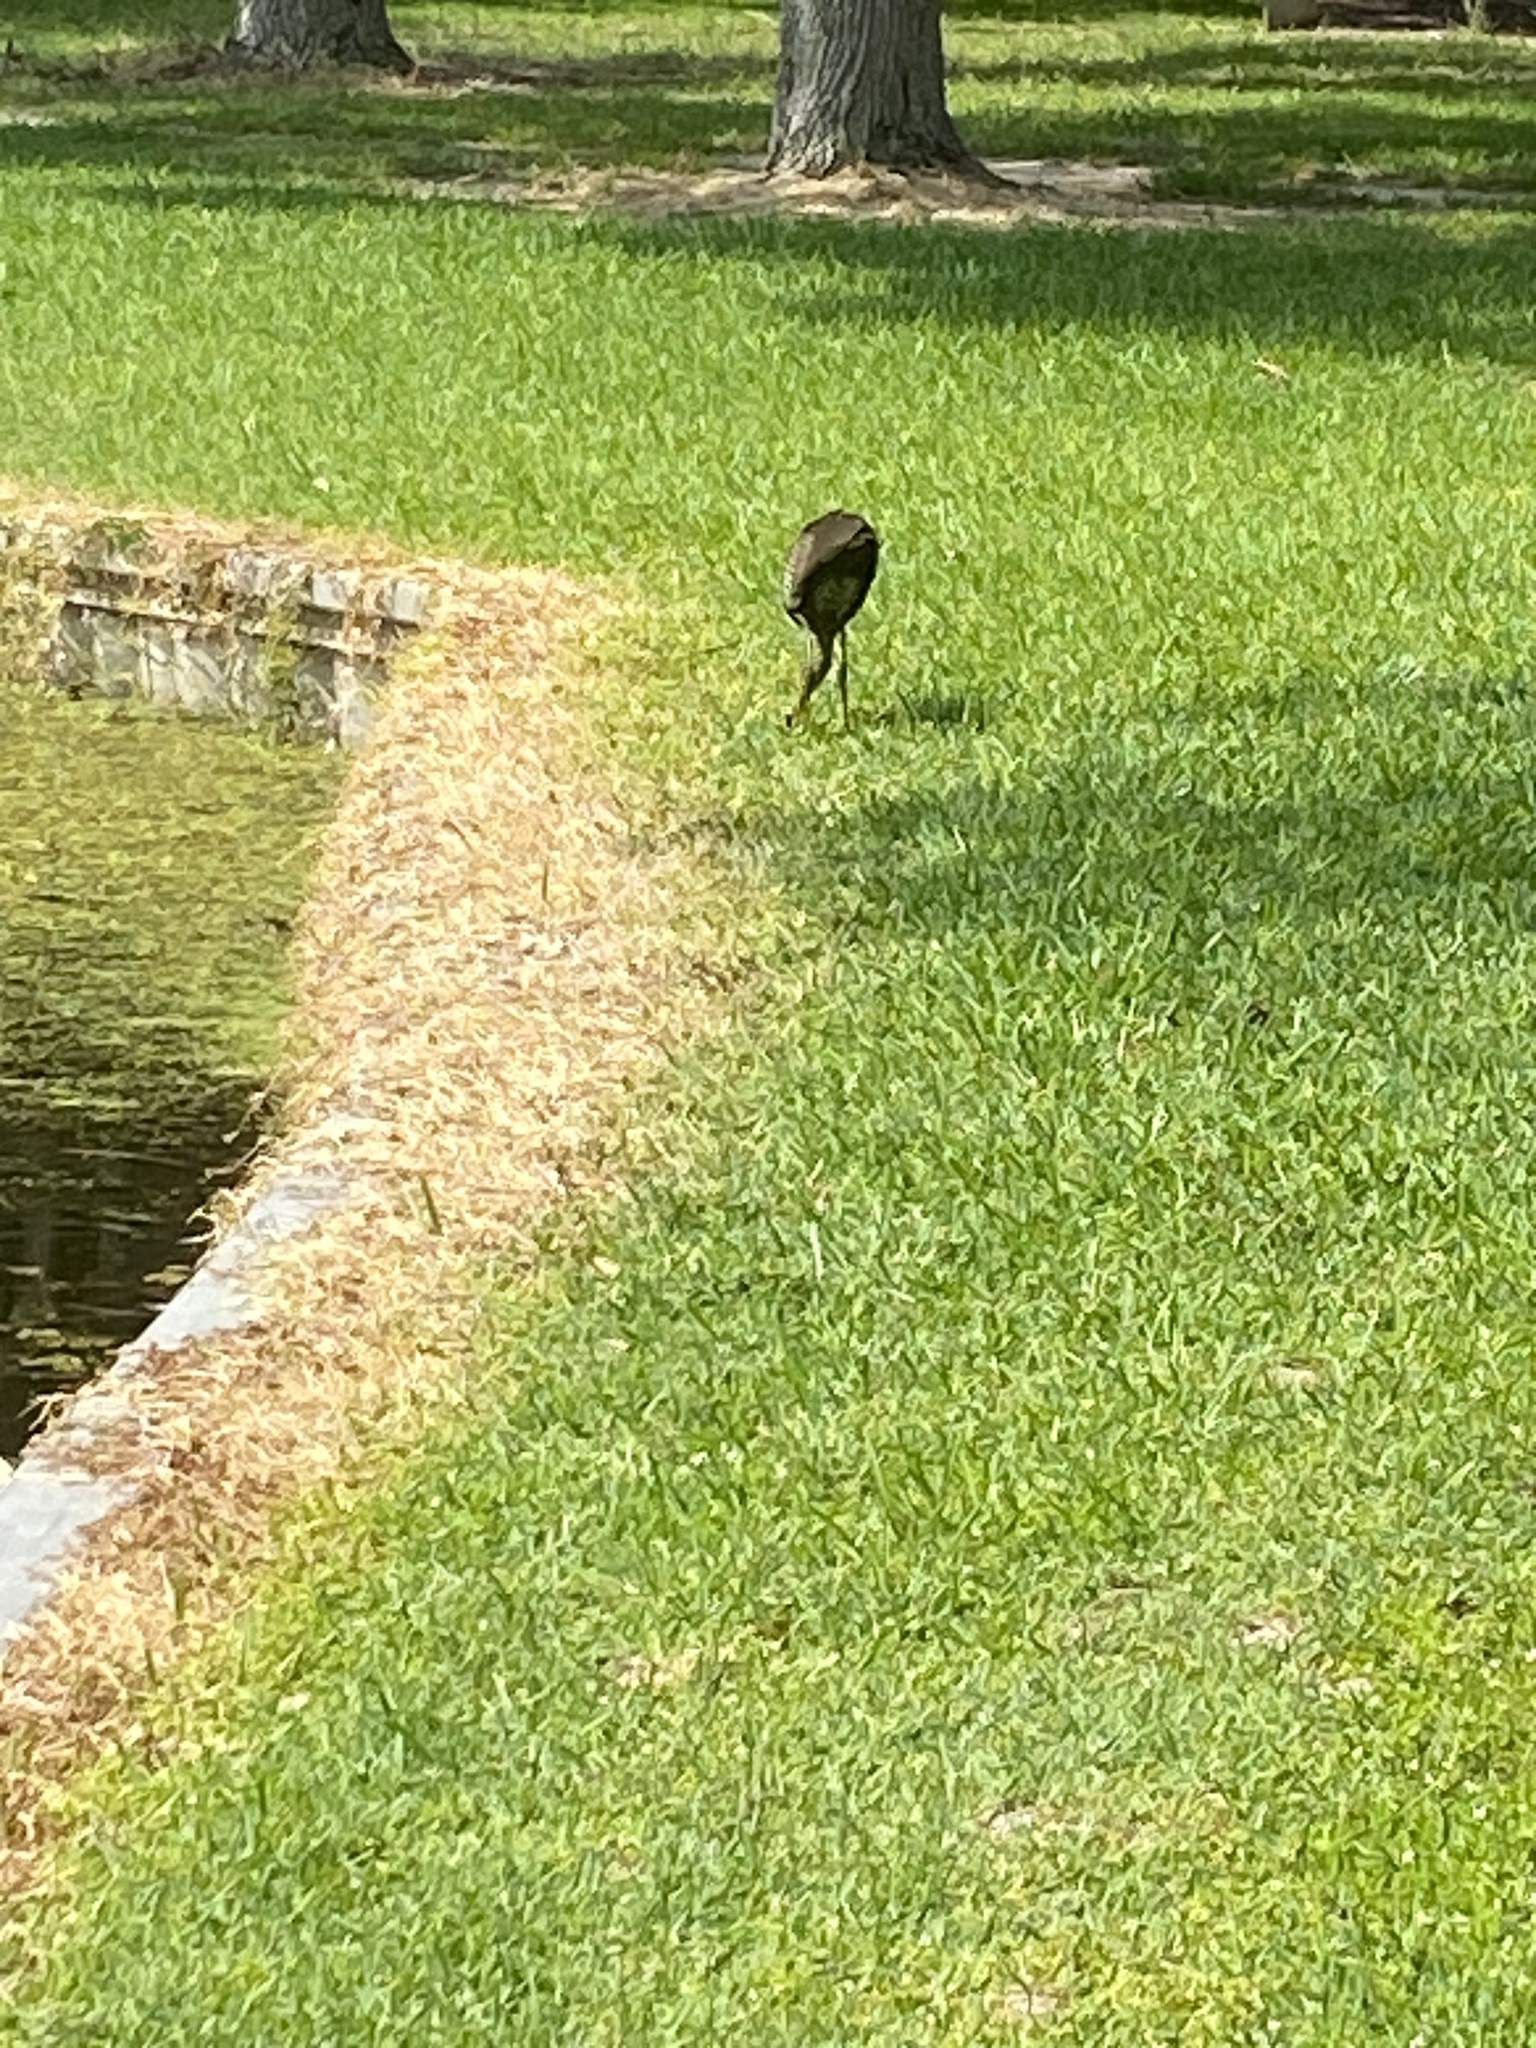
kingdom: Animalia
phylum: Chordata
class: Aves
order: Gruiformes
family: Aramidae
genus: Aramus
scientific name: Aramus guarauna
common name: Limpkin
